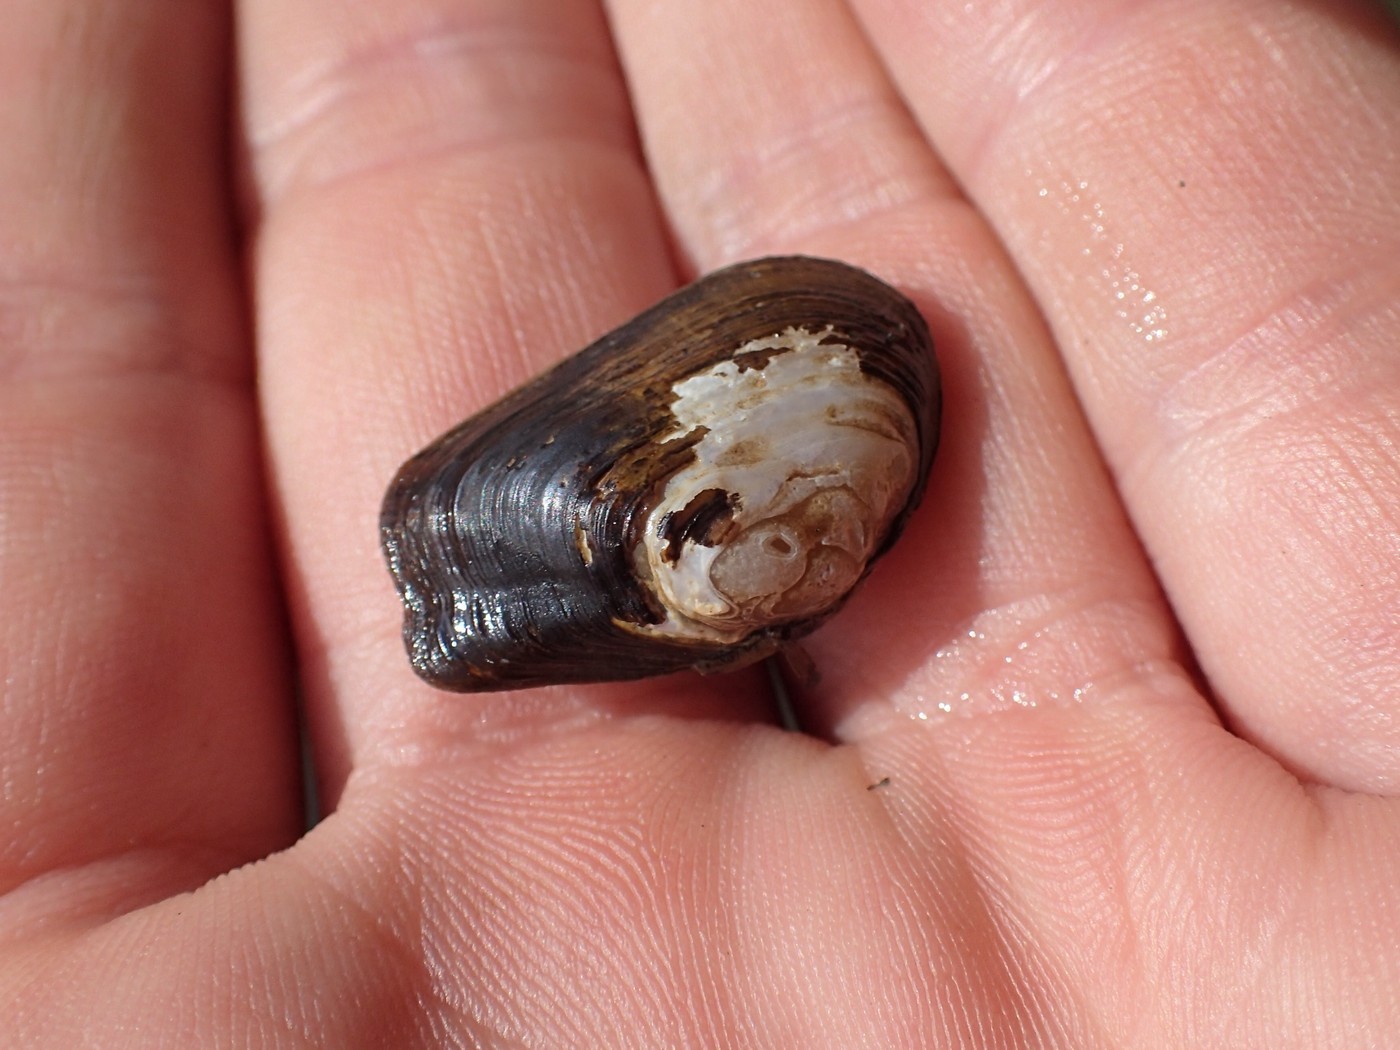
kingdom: Animalia
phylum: Mollusca
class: Bivalvia
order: Unionida
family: Unionidae
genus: Pegias
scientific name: Pegias fabula
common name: Littlewing pearlymussel
